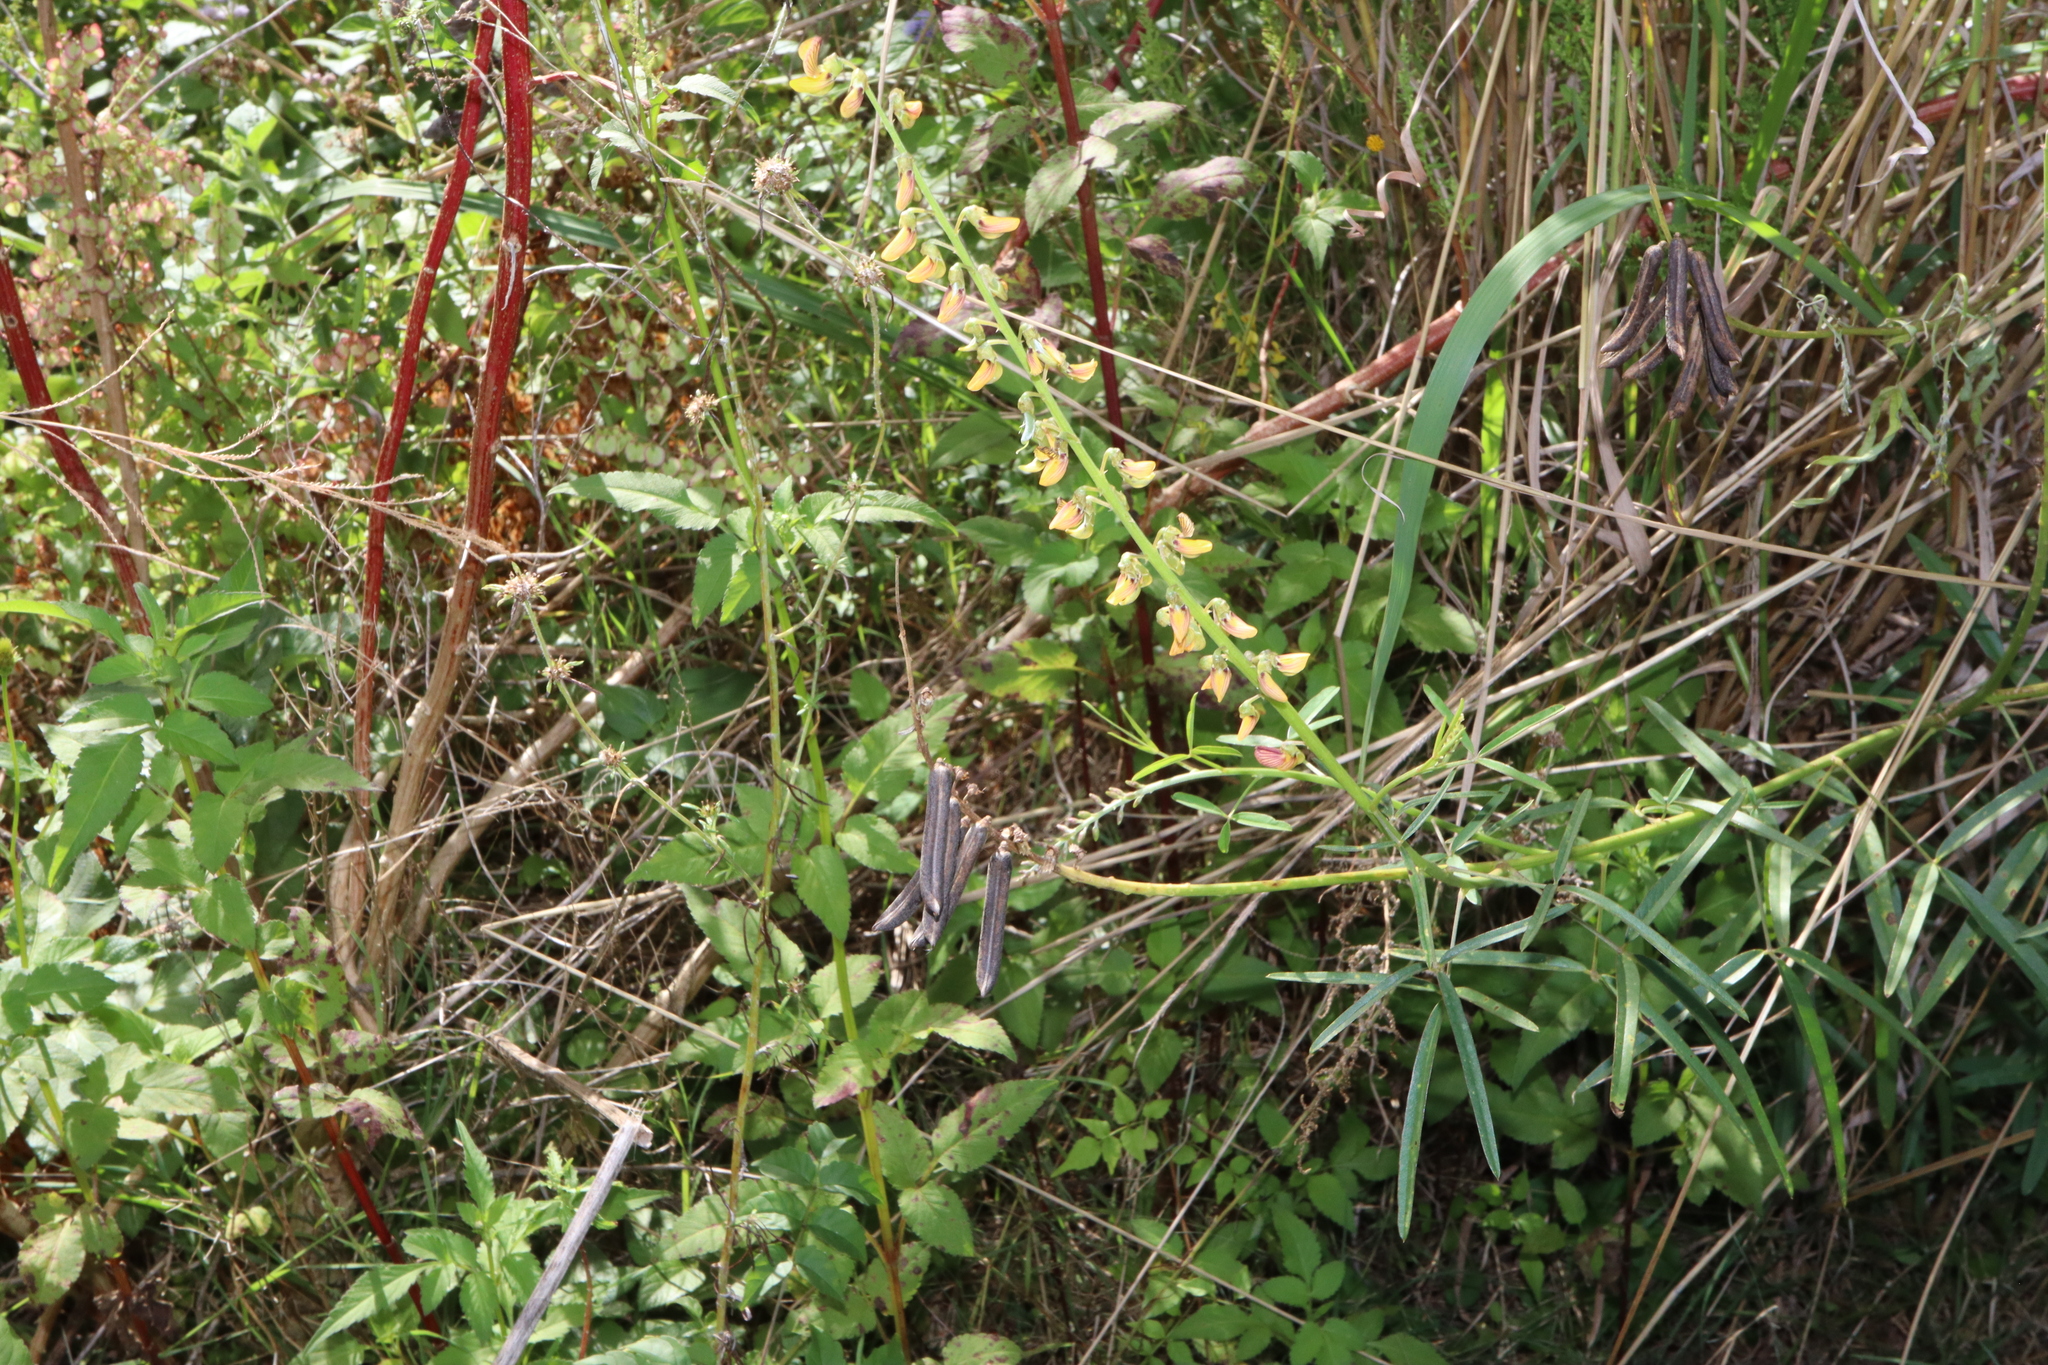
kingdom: Plantae
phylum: Tracheophyta
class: Magnoliopsida
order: Fabales
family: Fabaceae
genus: Crotalaria
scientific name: Crotalaria lanceolata
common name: Lanceleaf rattlebox
